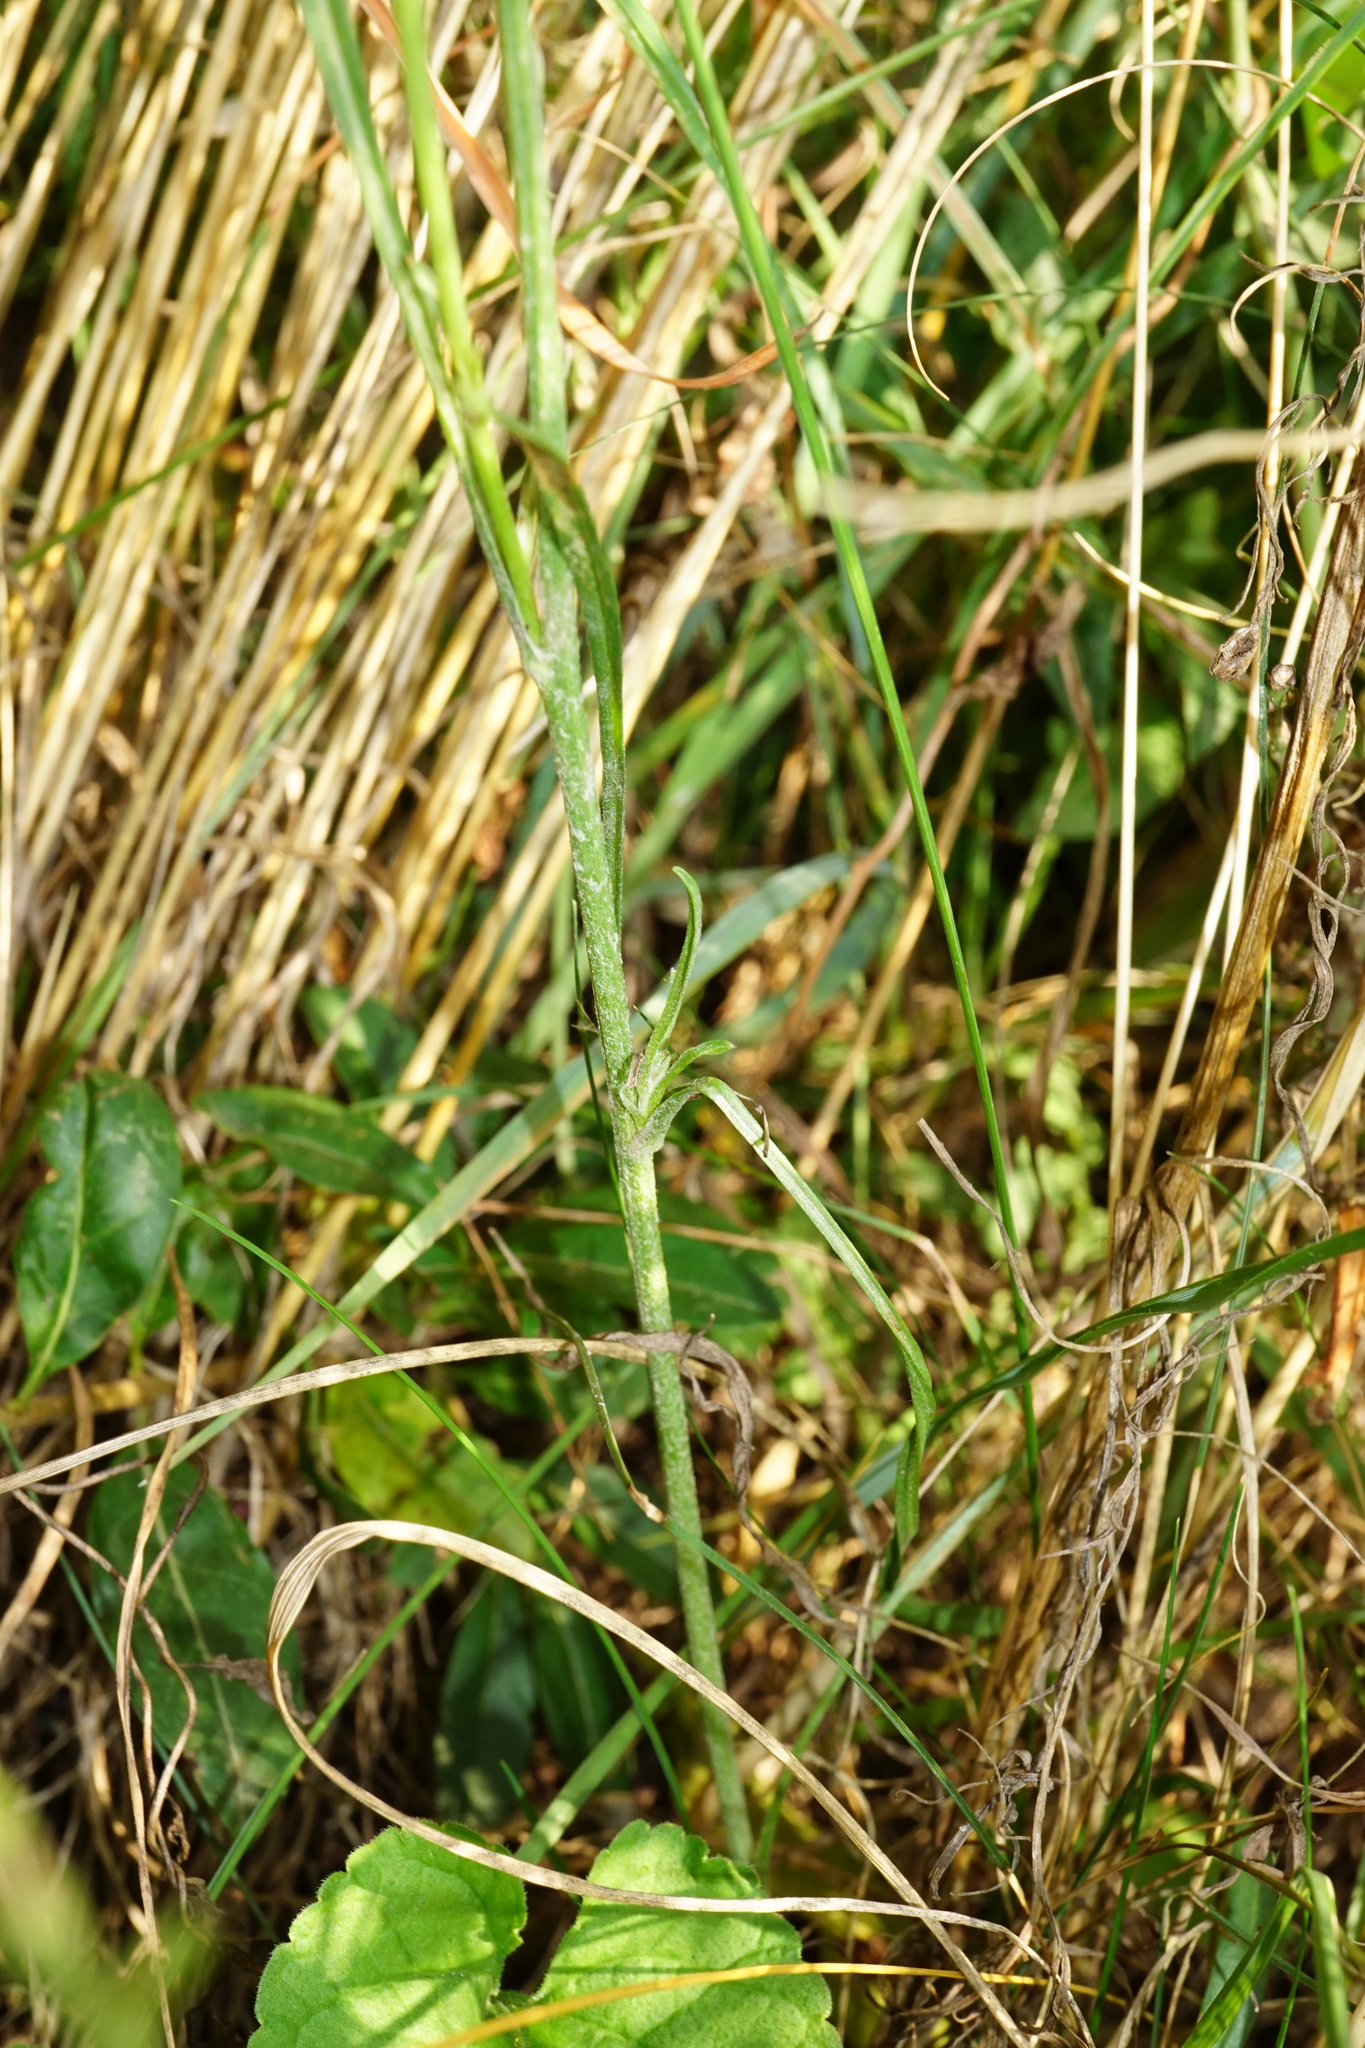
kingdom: Plantae
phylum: Tracheophyta
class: Magnoliopsida
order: Asterales
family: Asteraceae
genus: Scorzonera
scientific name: Scorzonera cana
